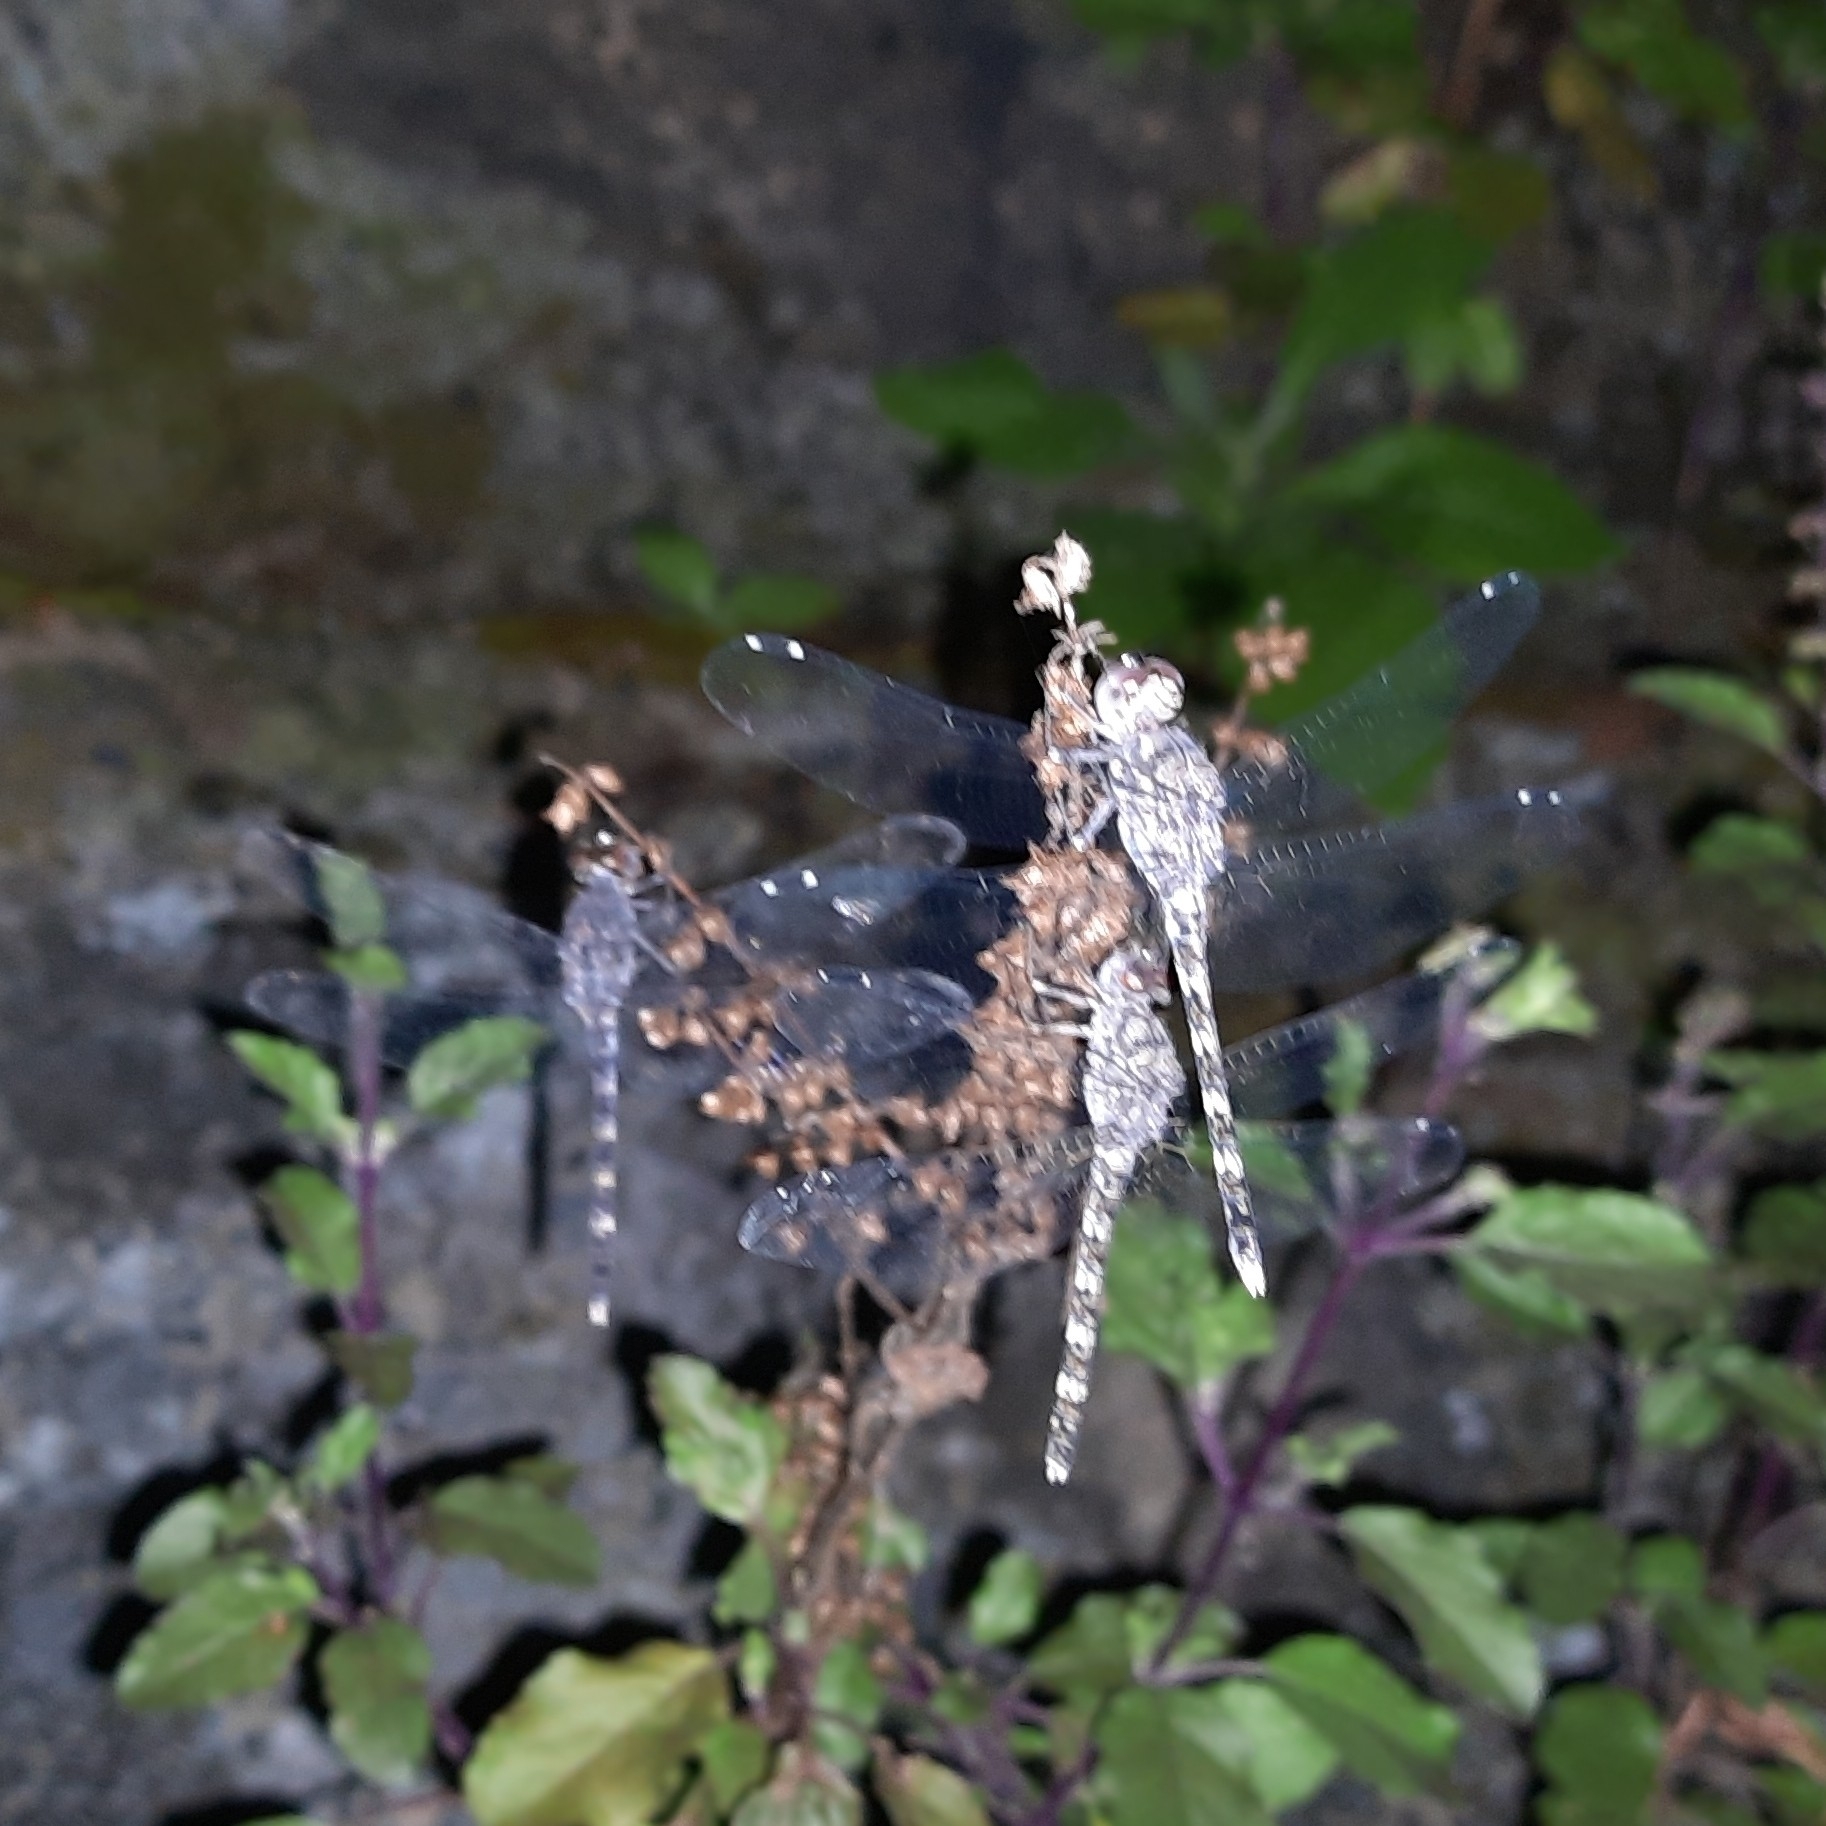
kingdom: Animalia
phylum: Arthropoda
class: Insecta
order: Odonata
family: Libellulidae
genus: Bradinopyga
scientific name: Bradinopyga geminata
